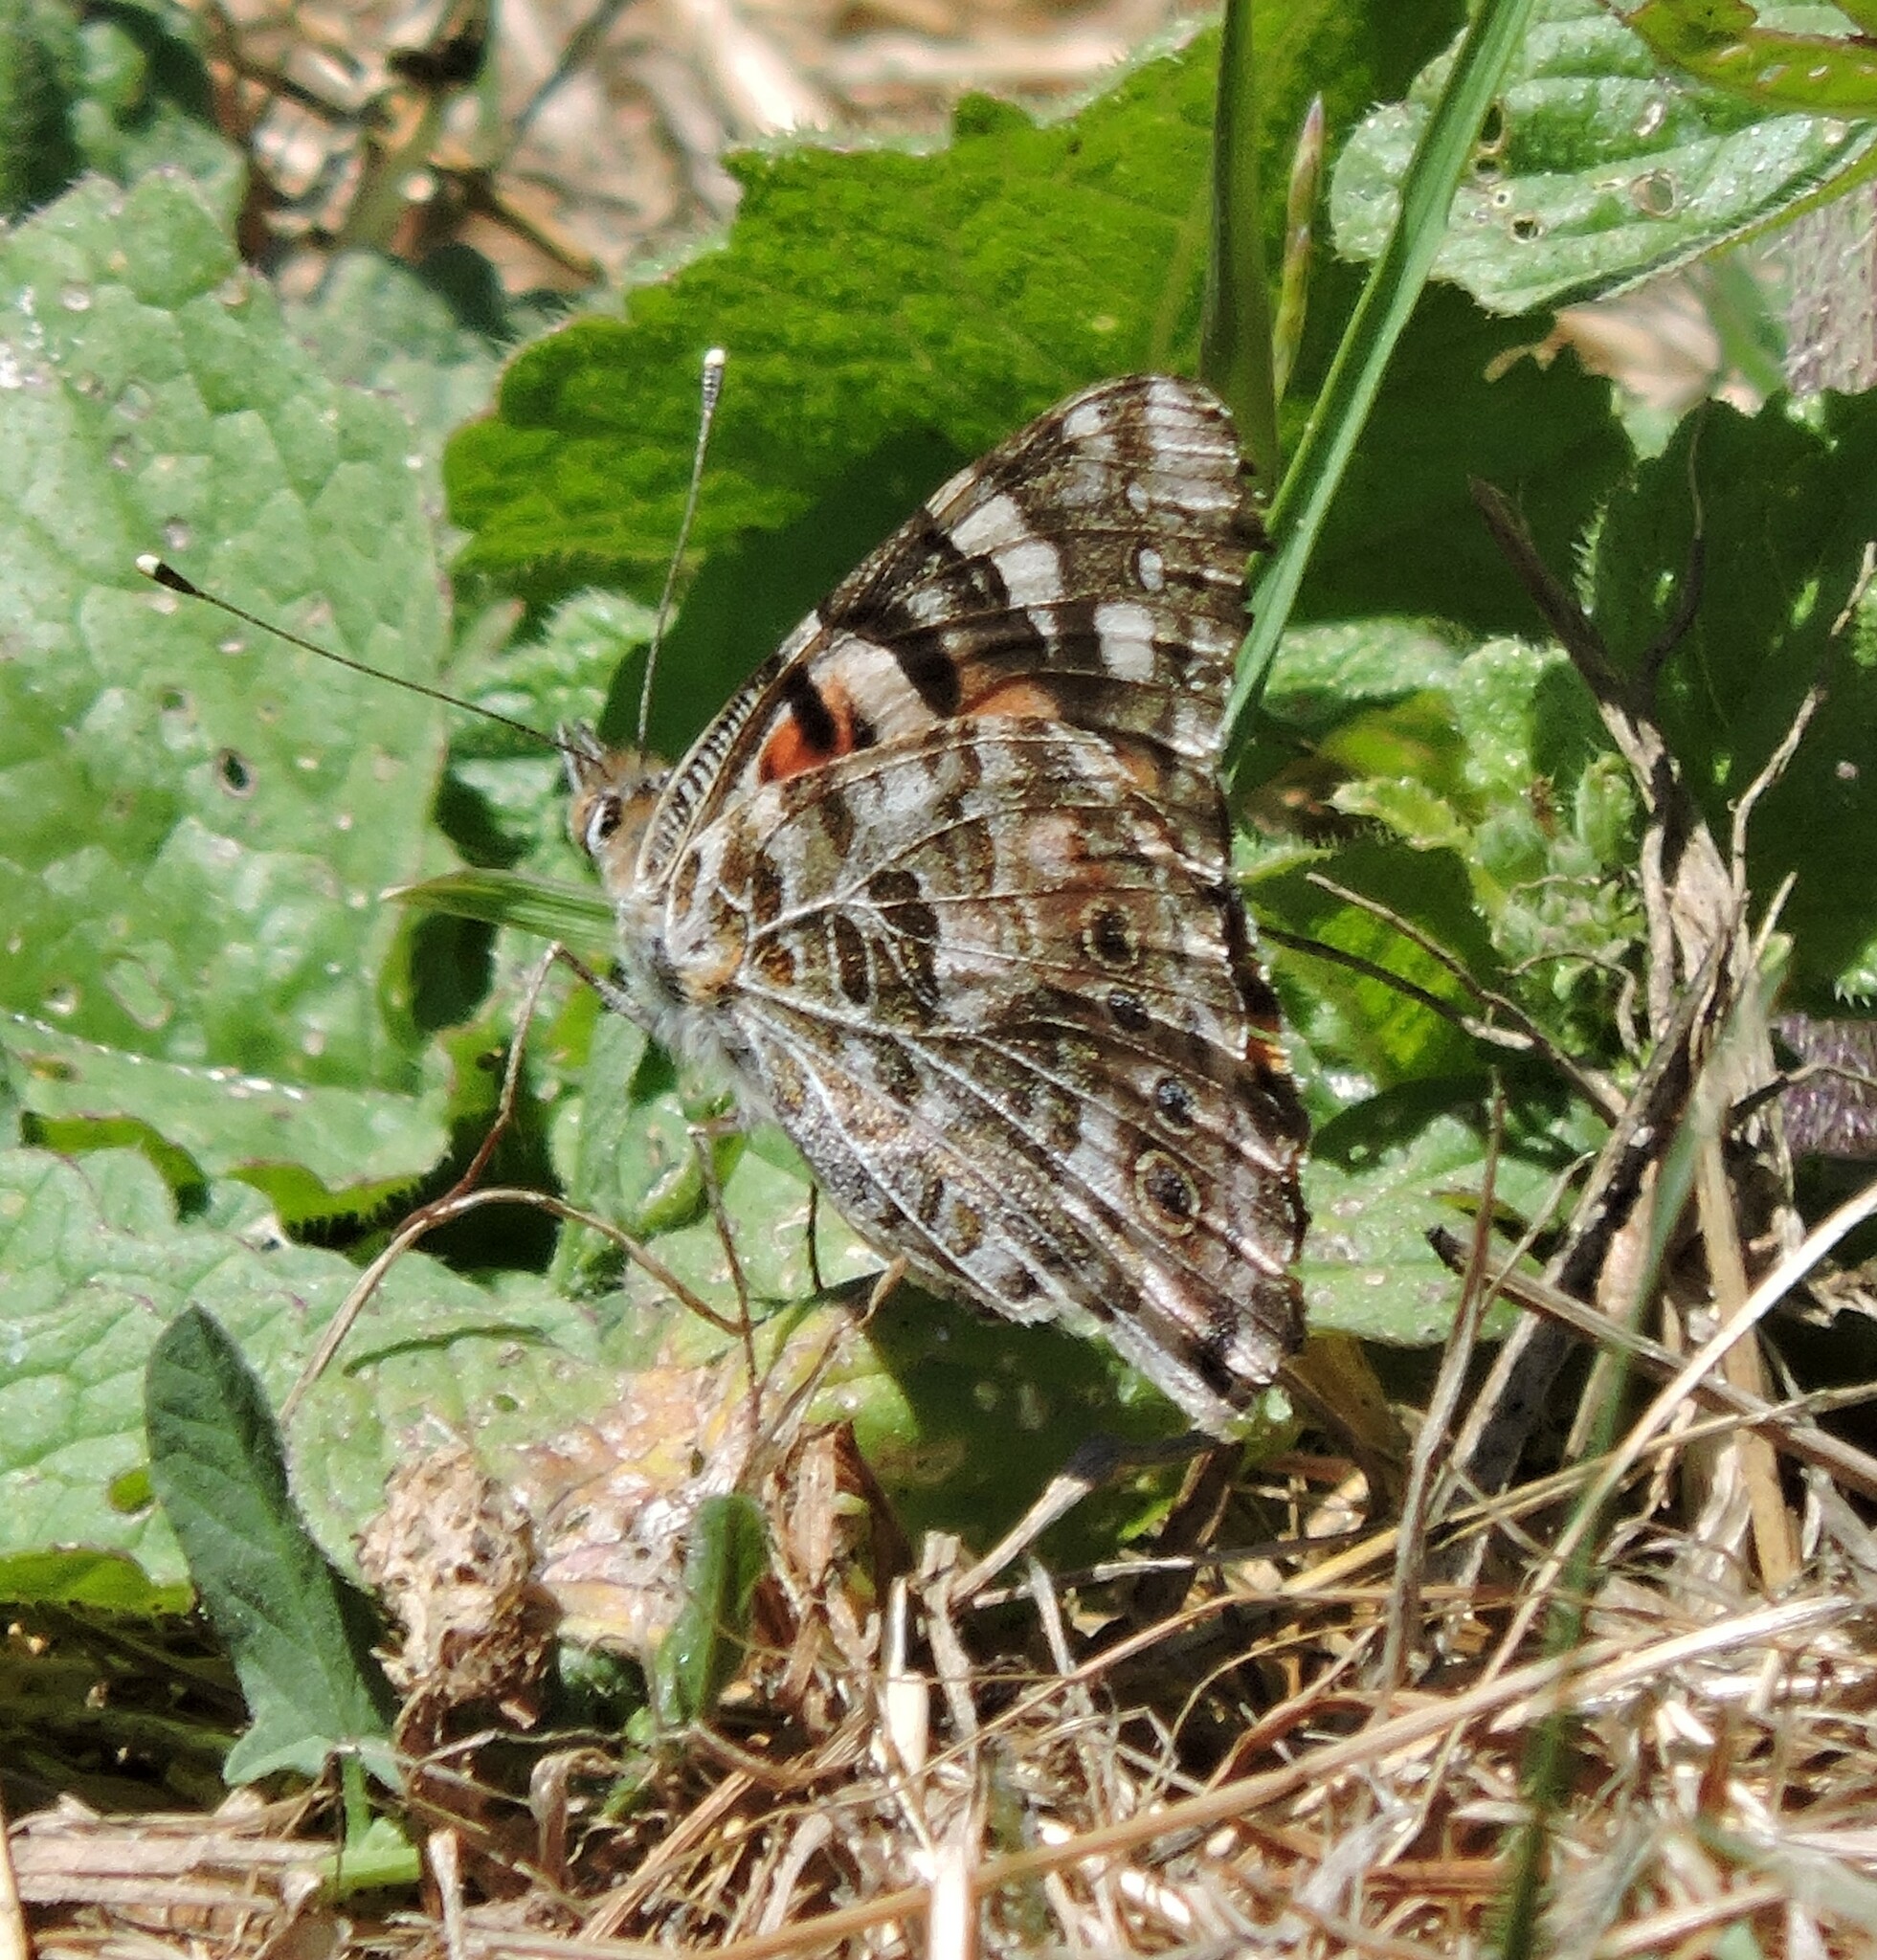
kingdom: Animalia
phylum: Arthropoda
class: Insecta
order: Lepidoptera
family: Nymphalidae
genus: Vanessa
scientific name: Vanessa cardui
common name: Painted lady
